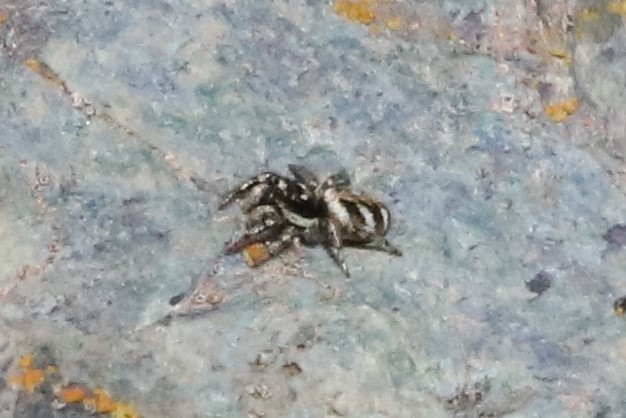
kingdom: Animalia
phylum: Arthropoda
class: Arachnida
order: Araneae
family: Salticidae
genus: Salticus
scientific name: Salticus scenicus
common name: Zebra jumper
